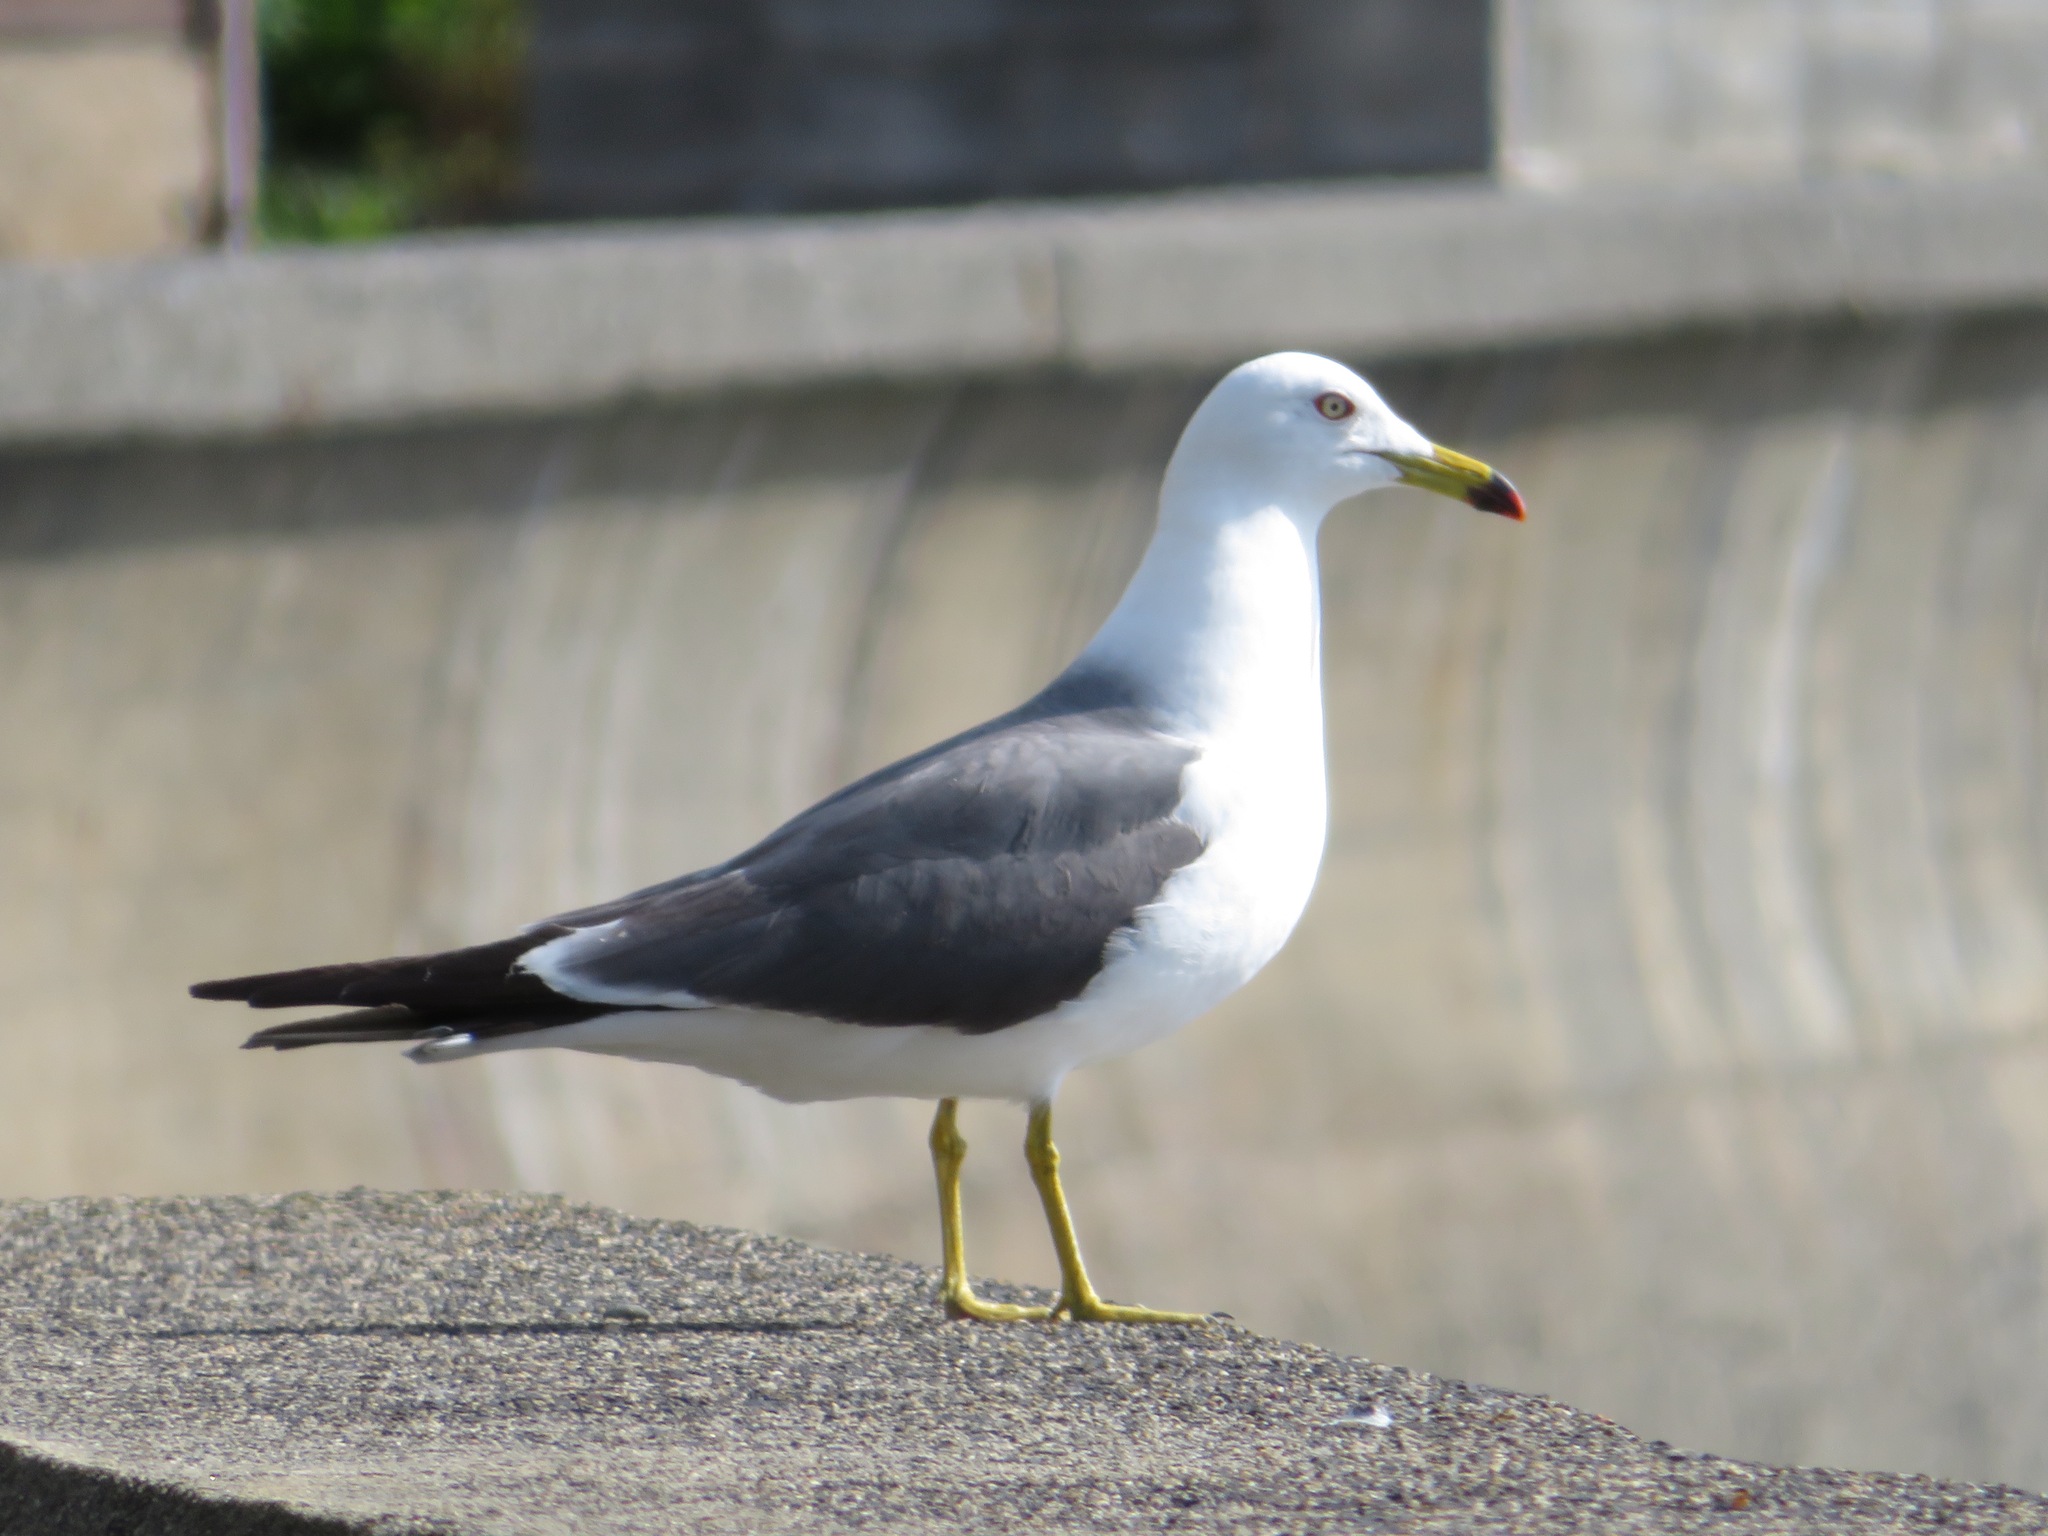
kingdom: Animalia
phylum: Chordata
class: Aves
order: Charadriiformes
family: Laridae
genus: Larus
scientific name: Larus crassirostris
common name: Black-tailed gull
